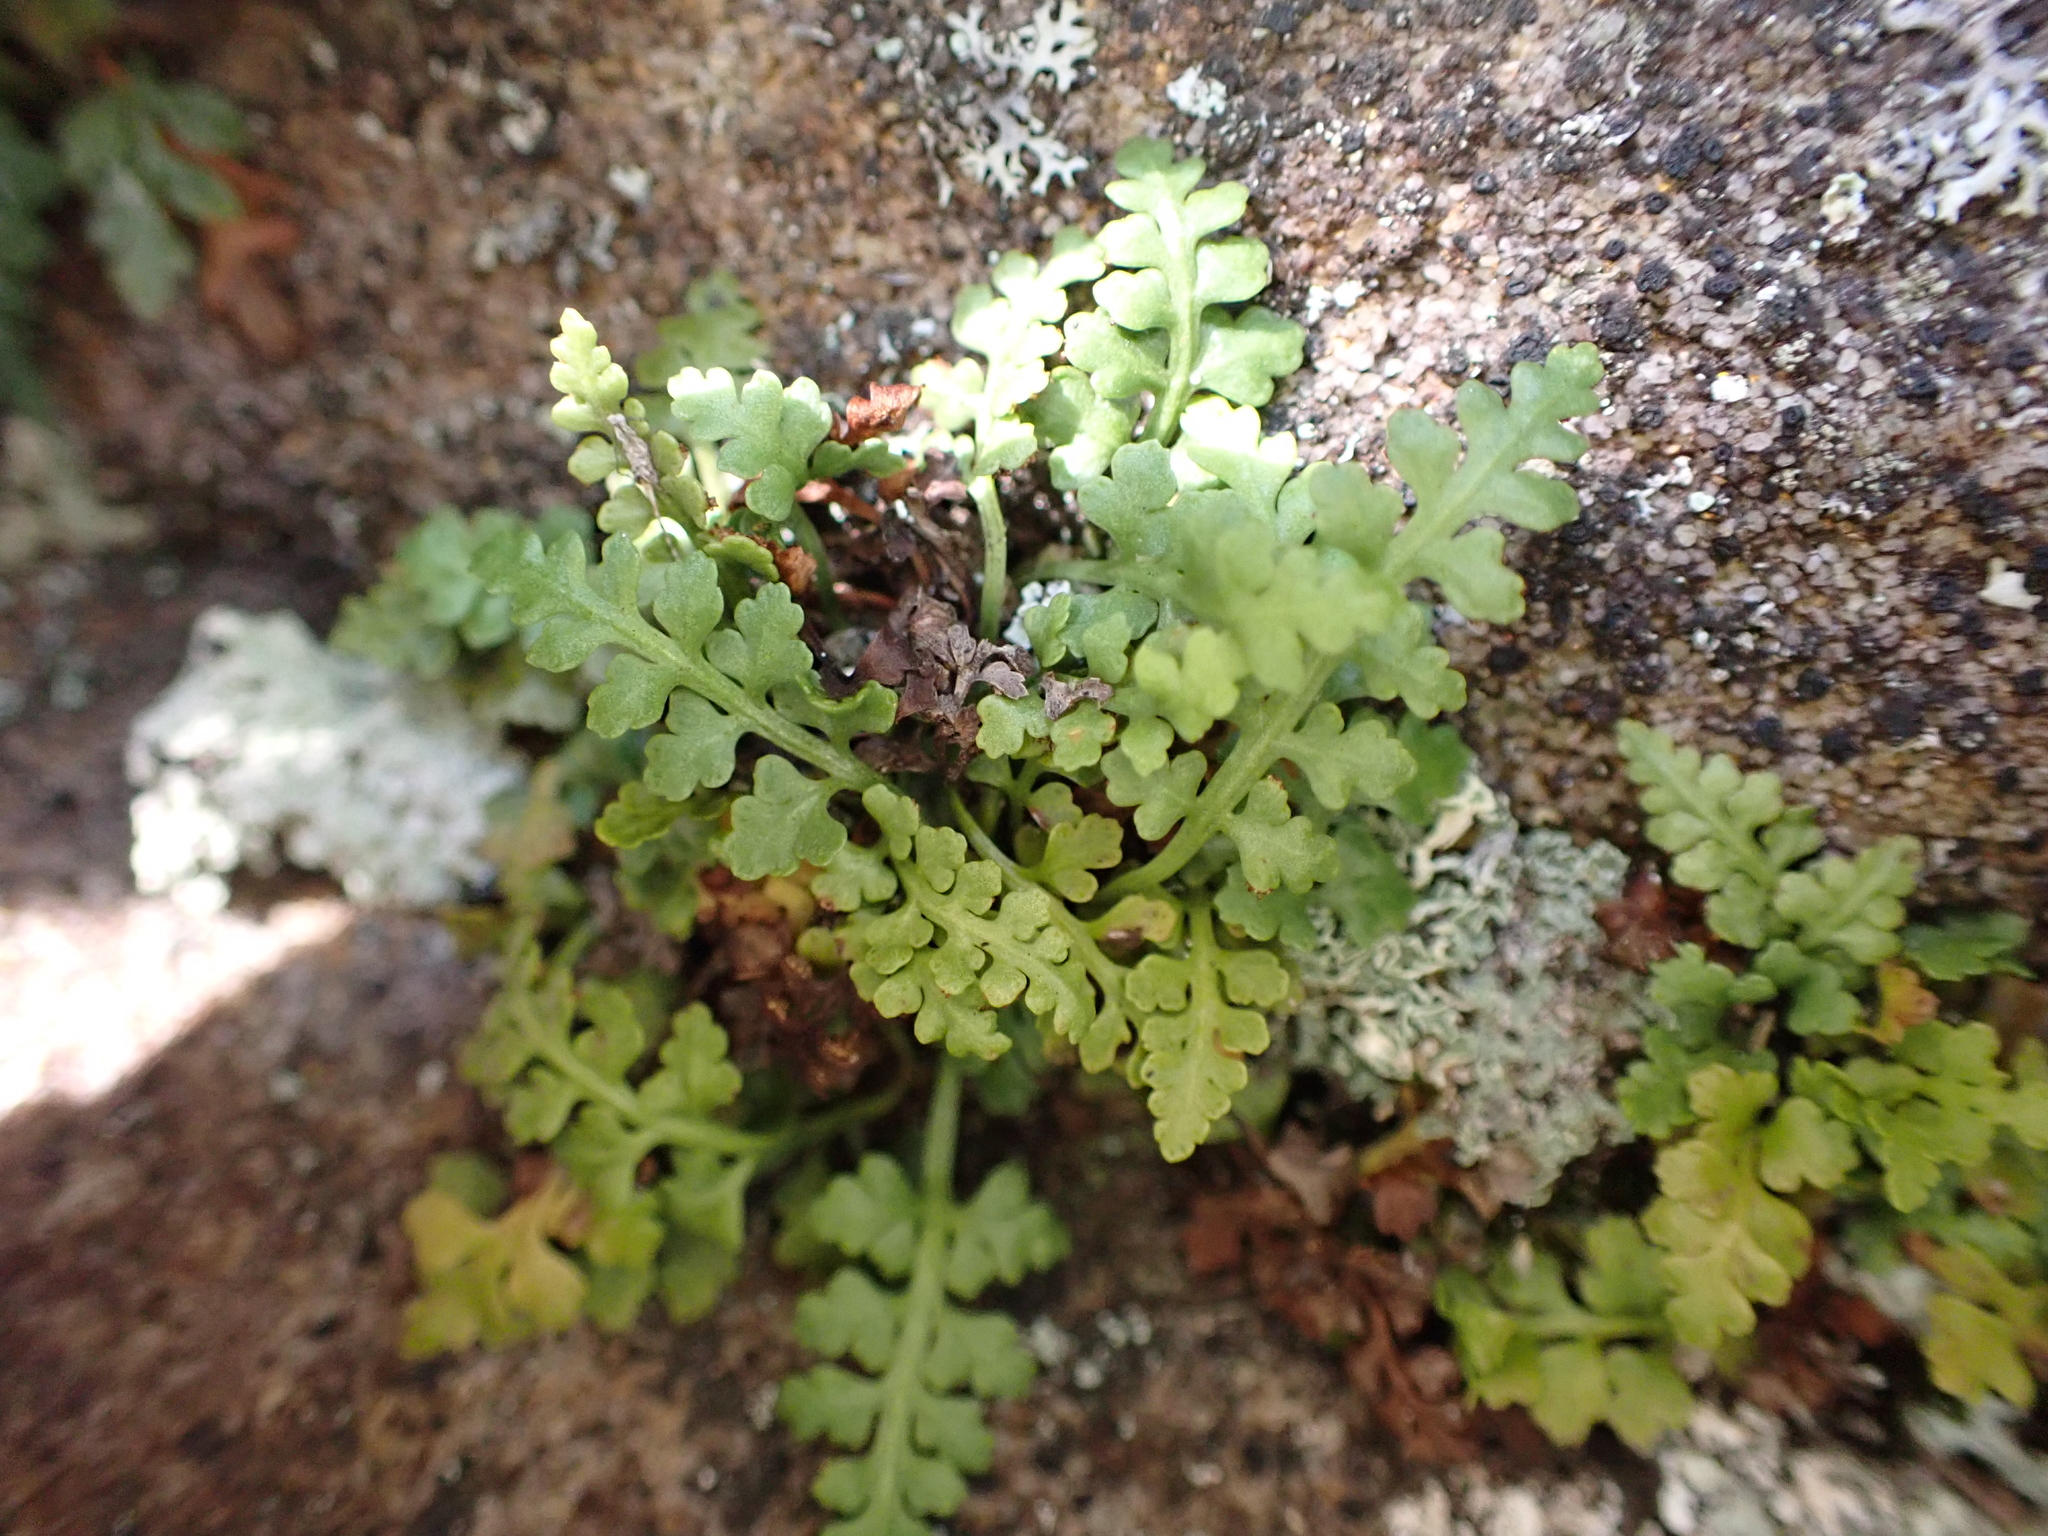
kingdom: Plantae
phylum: Tracheophyta
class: Polypodiopsida
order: Polypodiales
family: Aspleniaceae
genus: Asplenium
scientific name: Asplenium montanum
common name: Mountain spleenwort
